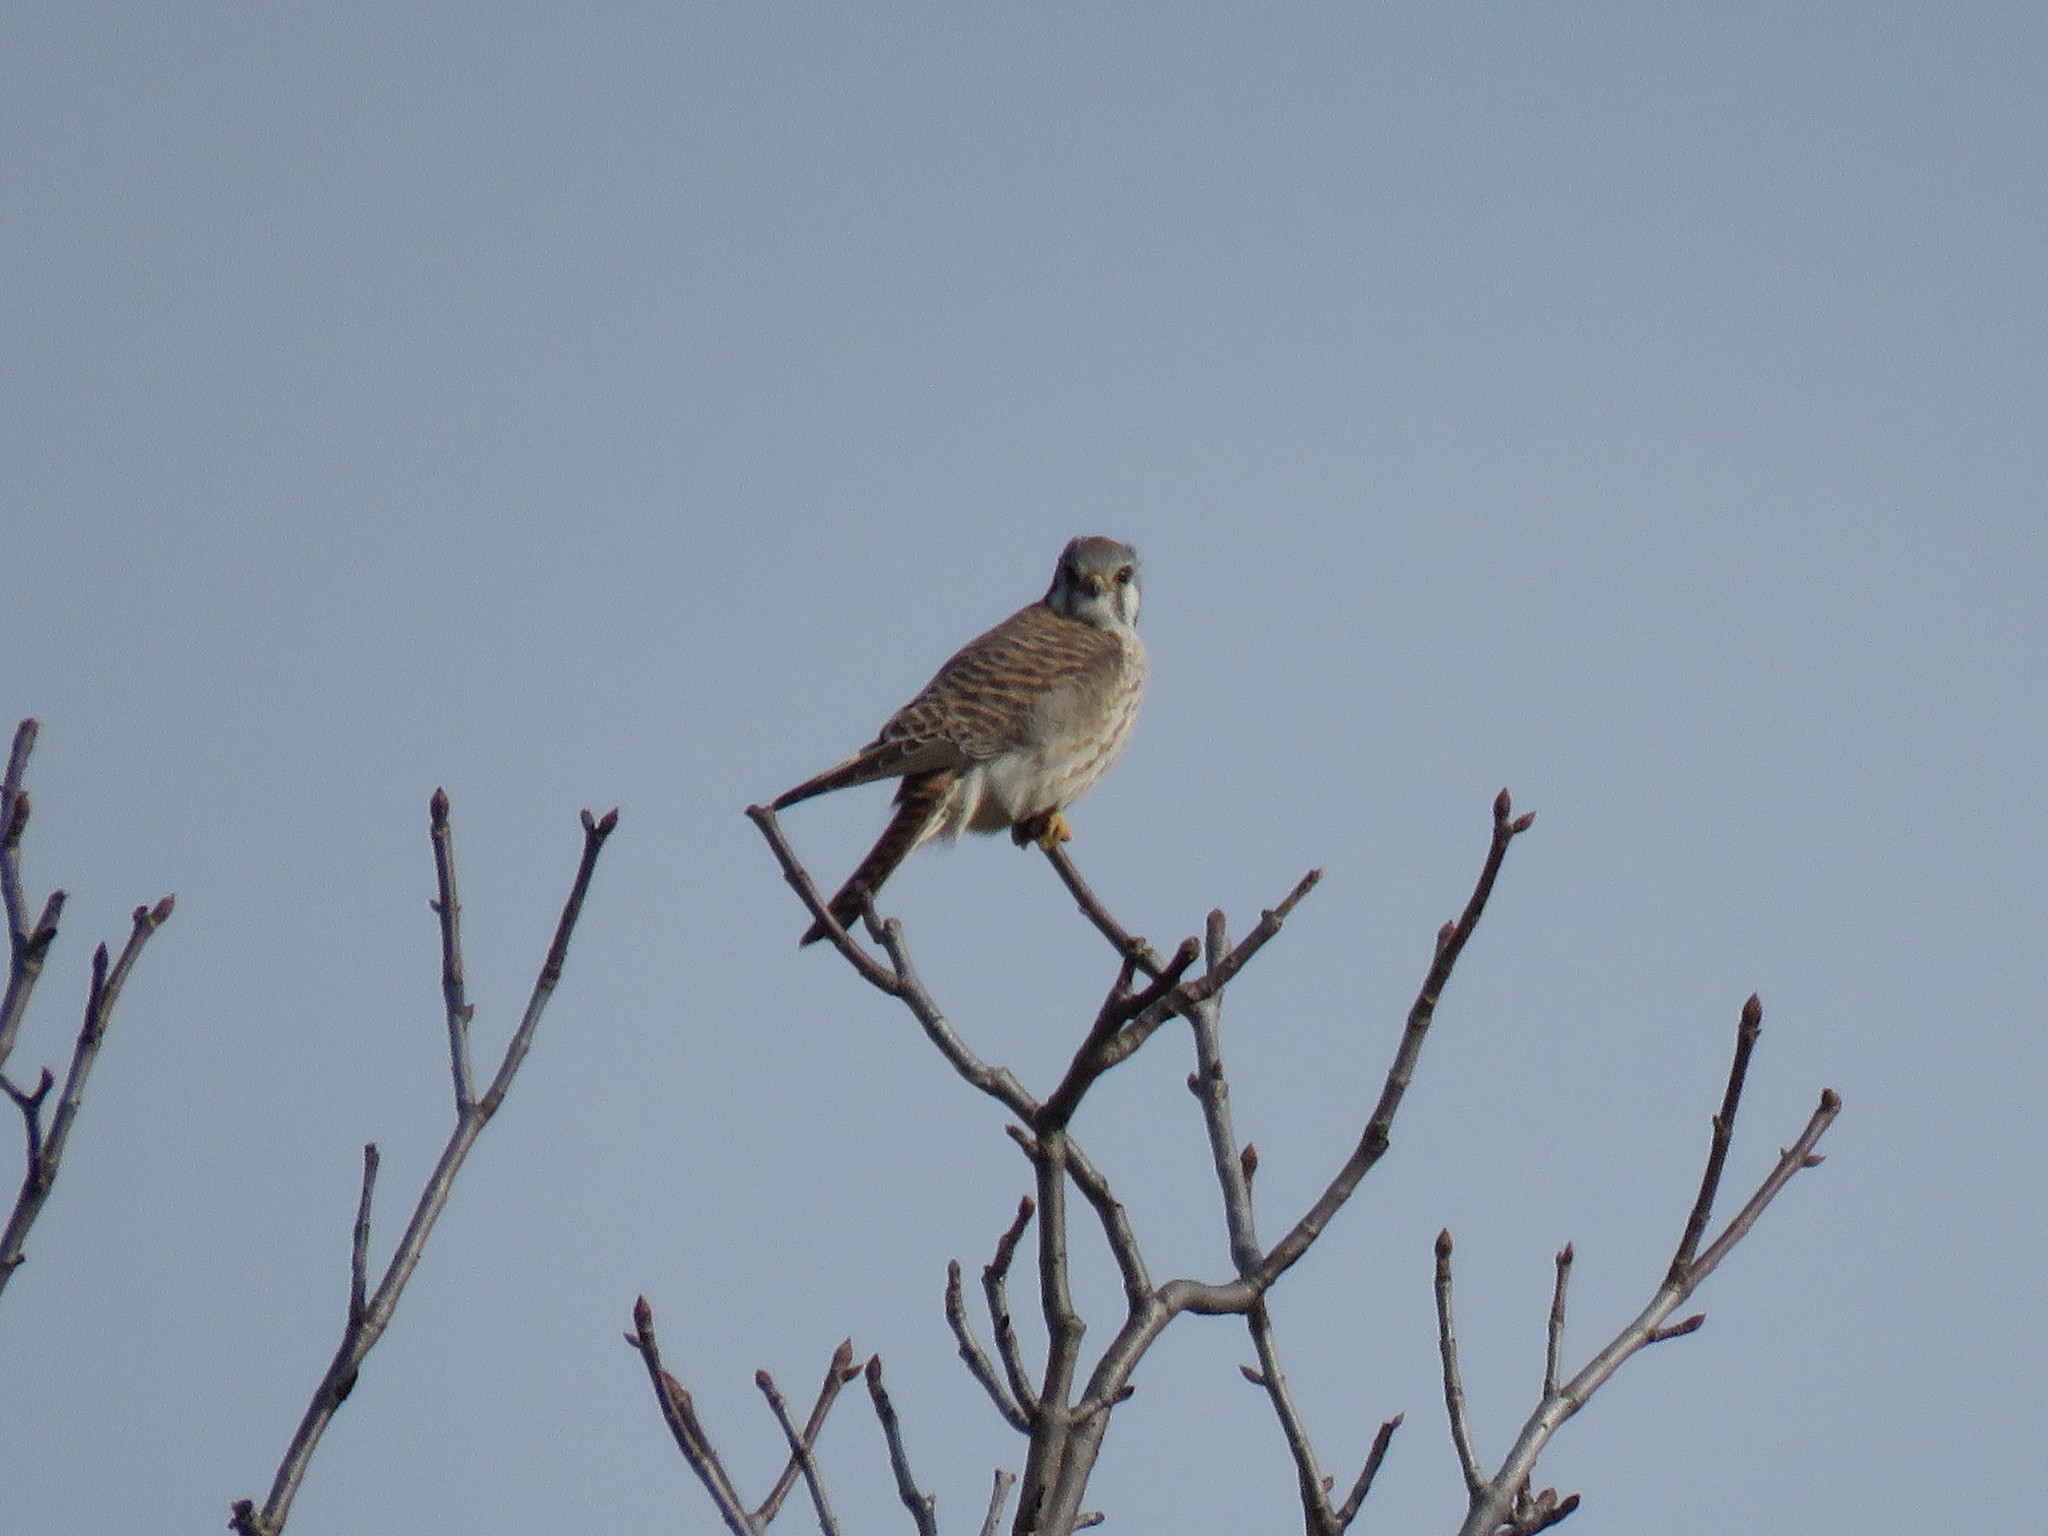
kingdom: Animalia
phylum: Chordata
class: Aves
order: Falconiformes
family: Falconidae
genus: Falco
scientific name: Falco sparverius
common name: American kestrel
